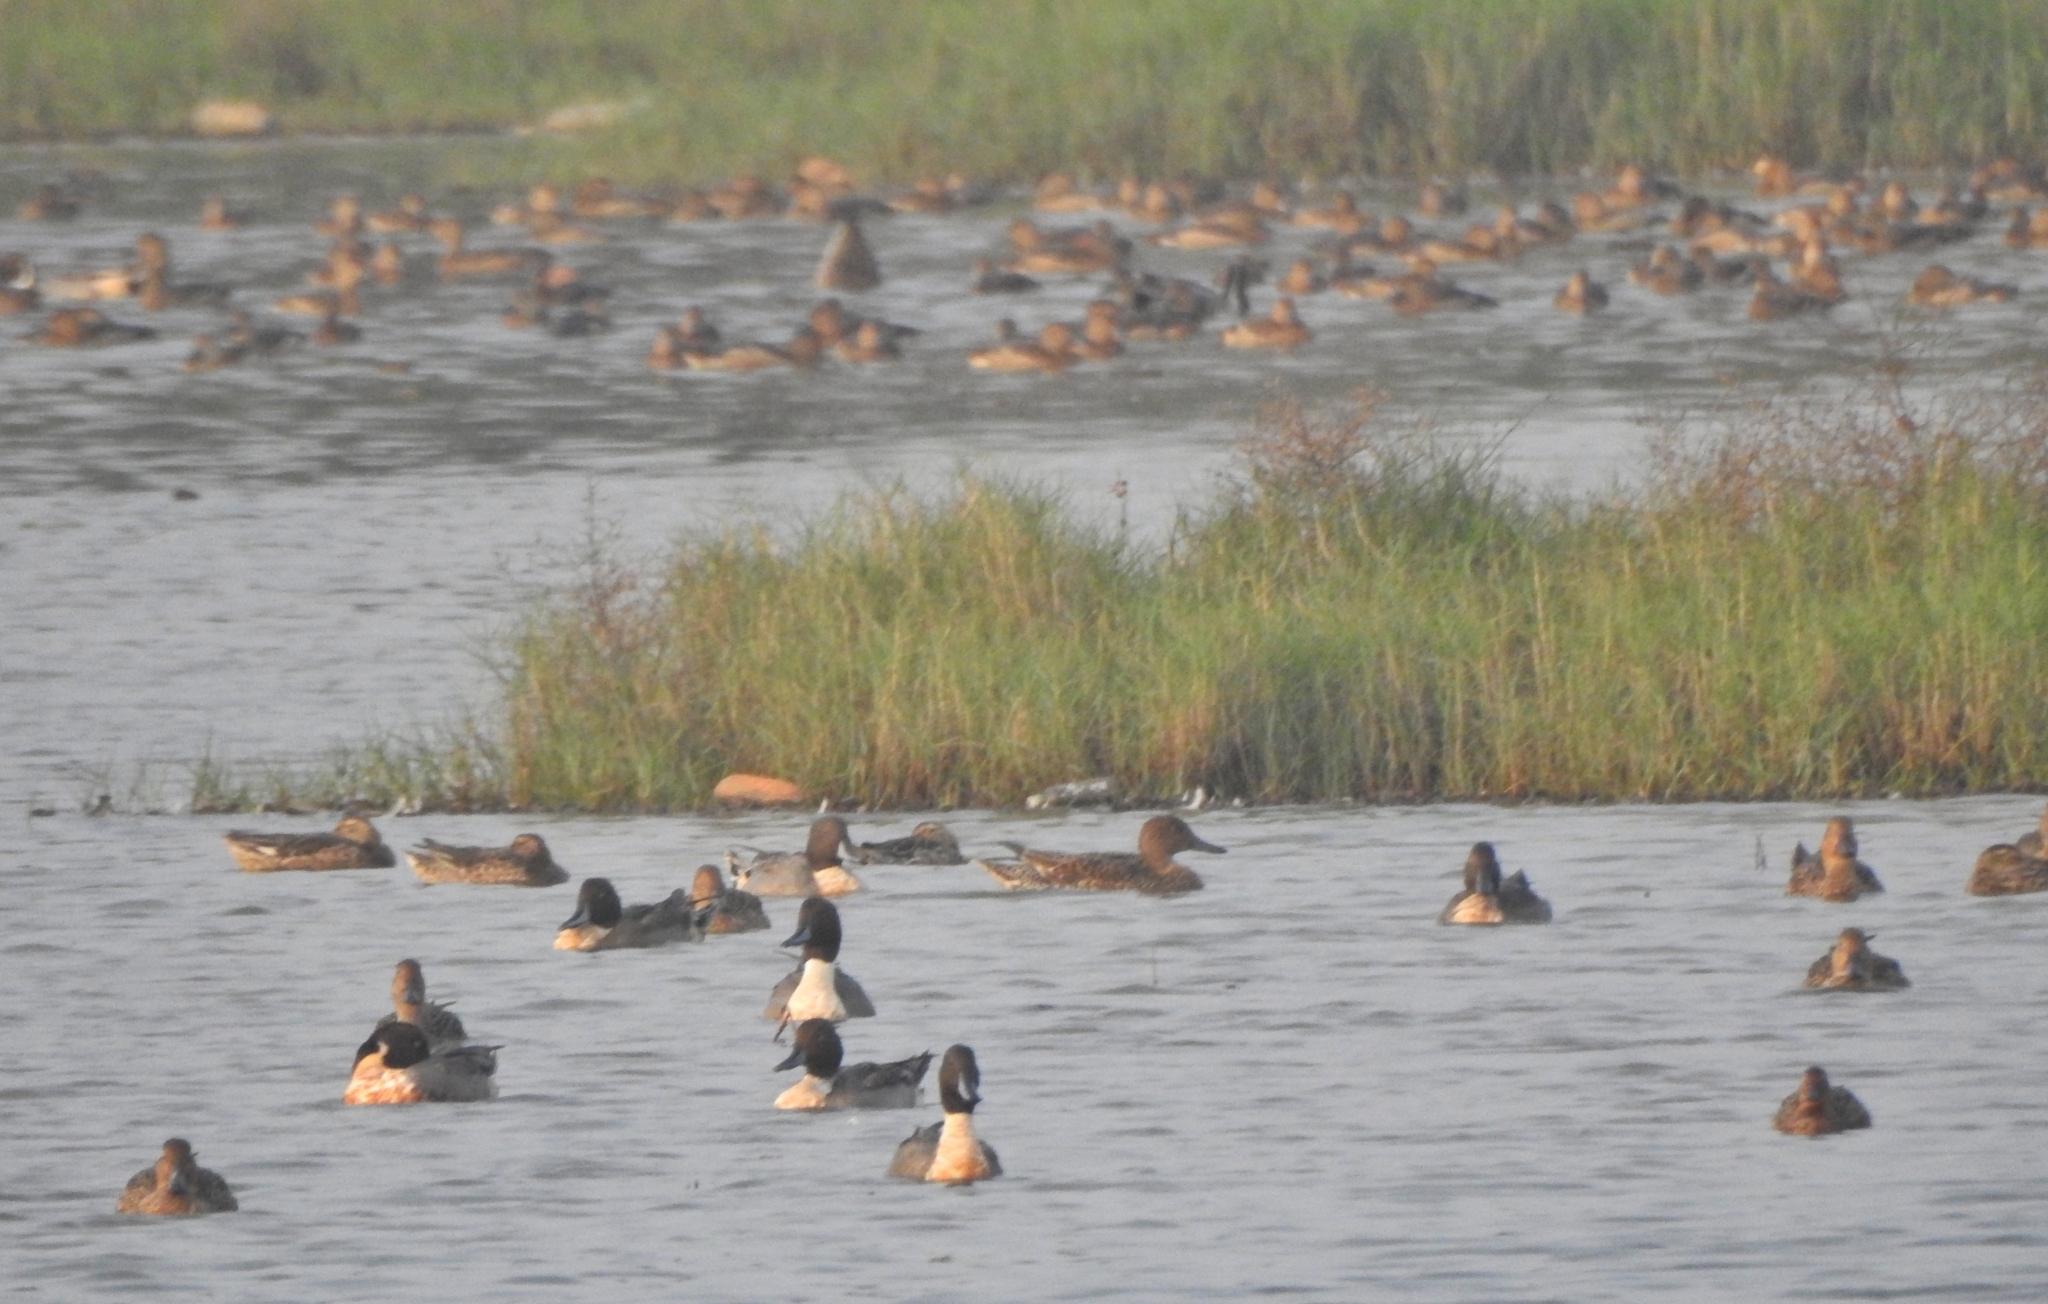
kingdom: Animalia
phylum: Chordata
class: Aves
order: Anseriformes
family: Anatidae
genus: Anas
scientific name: Anas acuta
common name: Northern pintail
